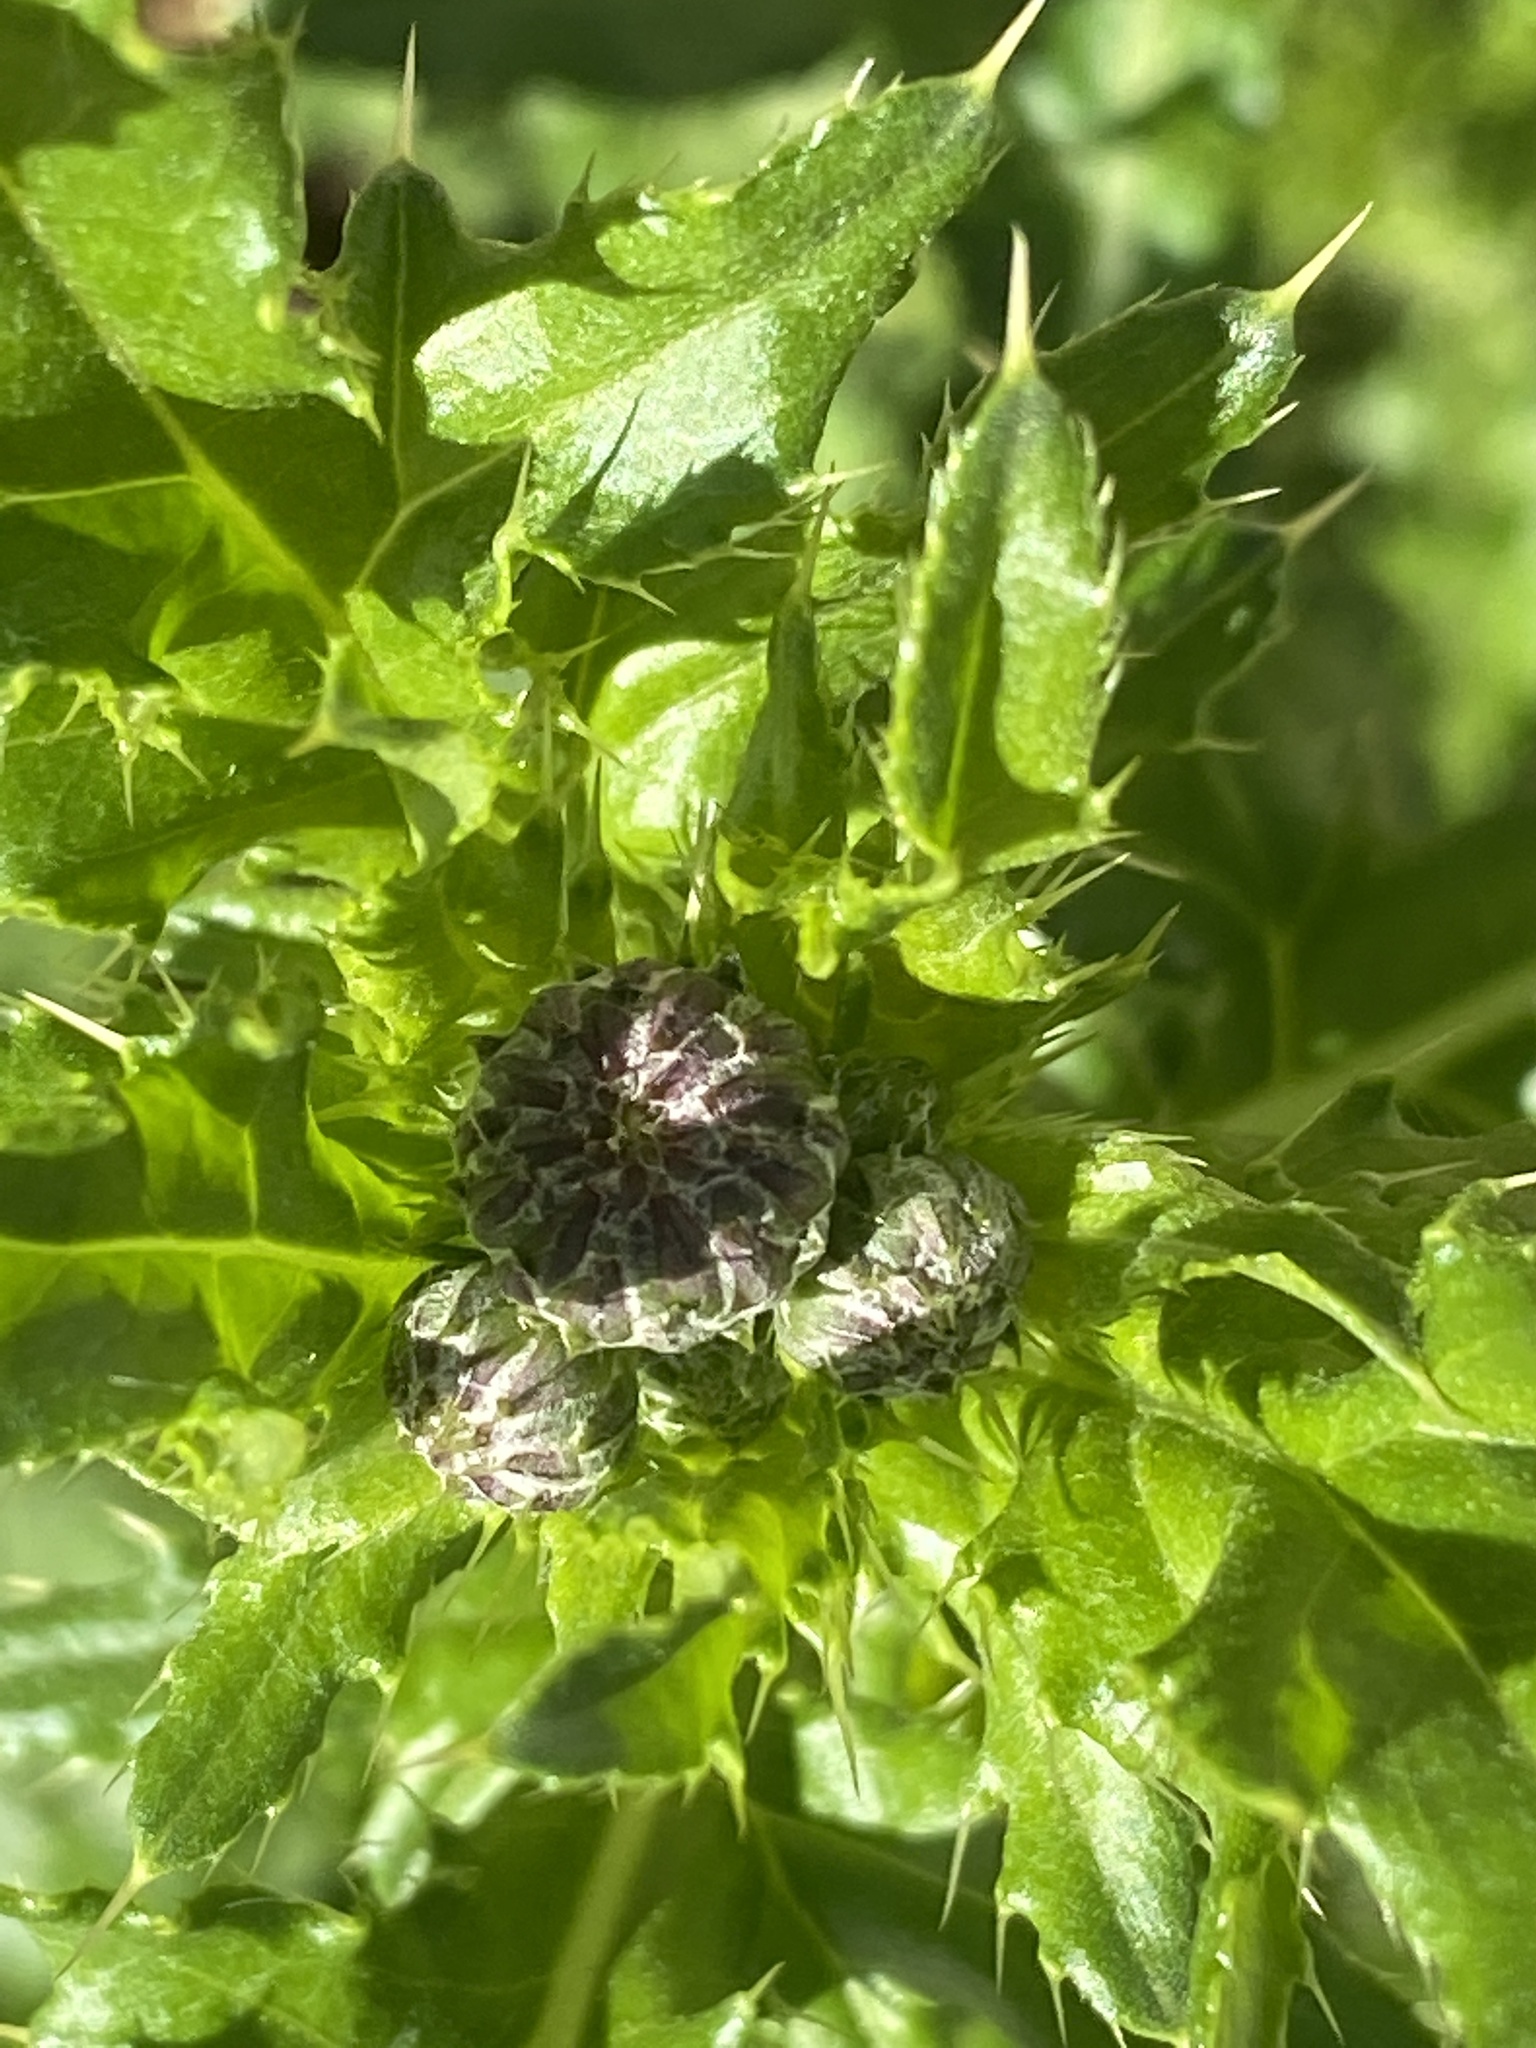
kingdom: Plantae
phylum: Tracheophyta
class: Magnoliopsida
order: Asterales
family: Asteraceae
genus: Cirsium
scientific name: Cirsium arvense
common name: Creeping thistle
